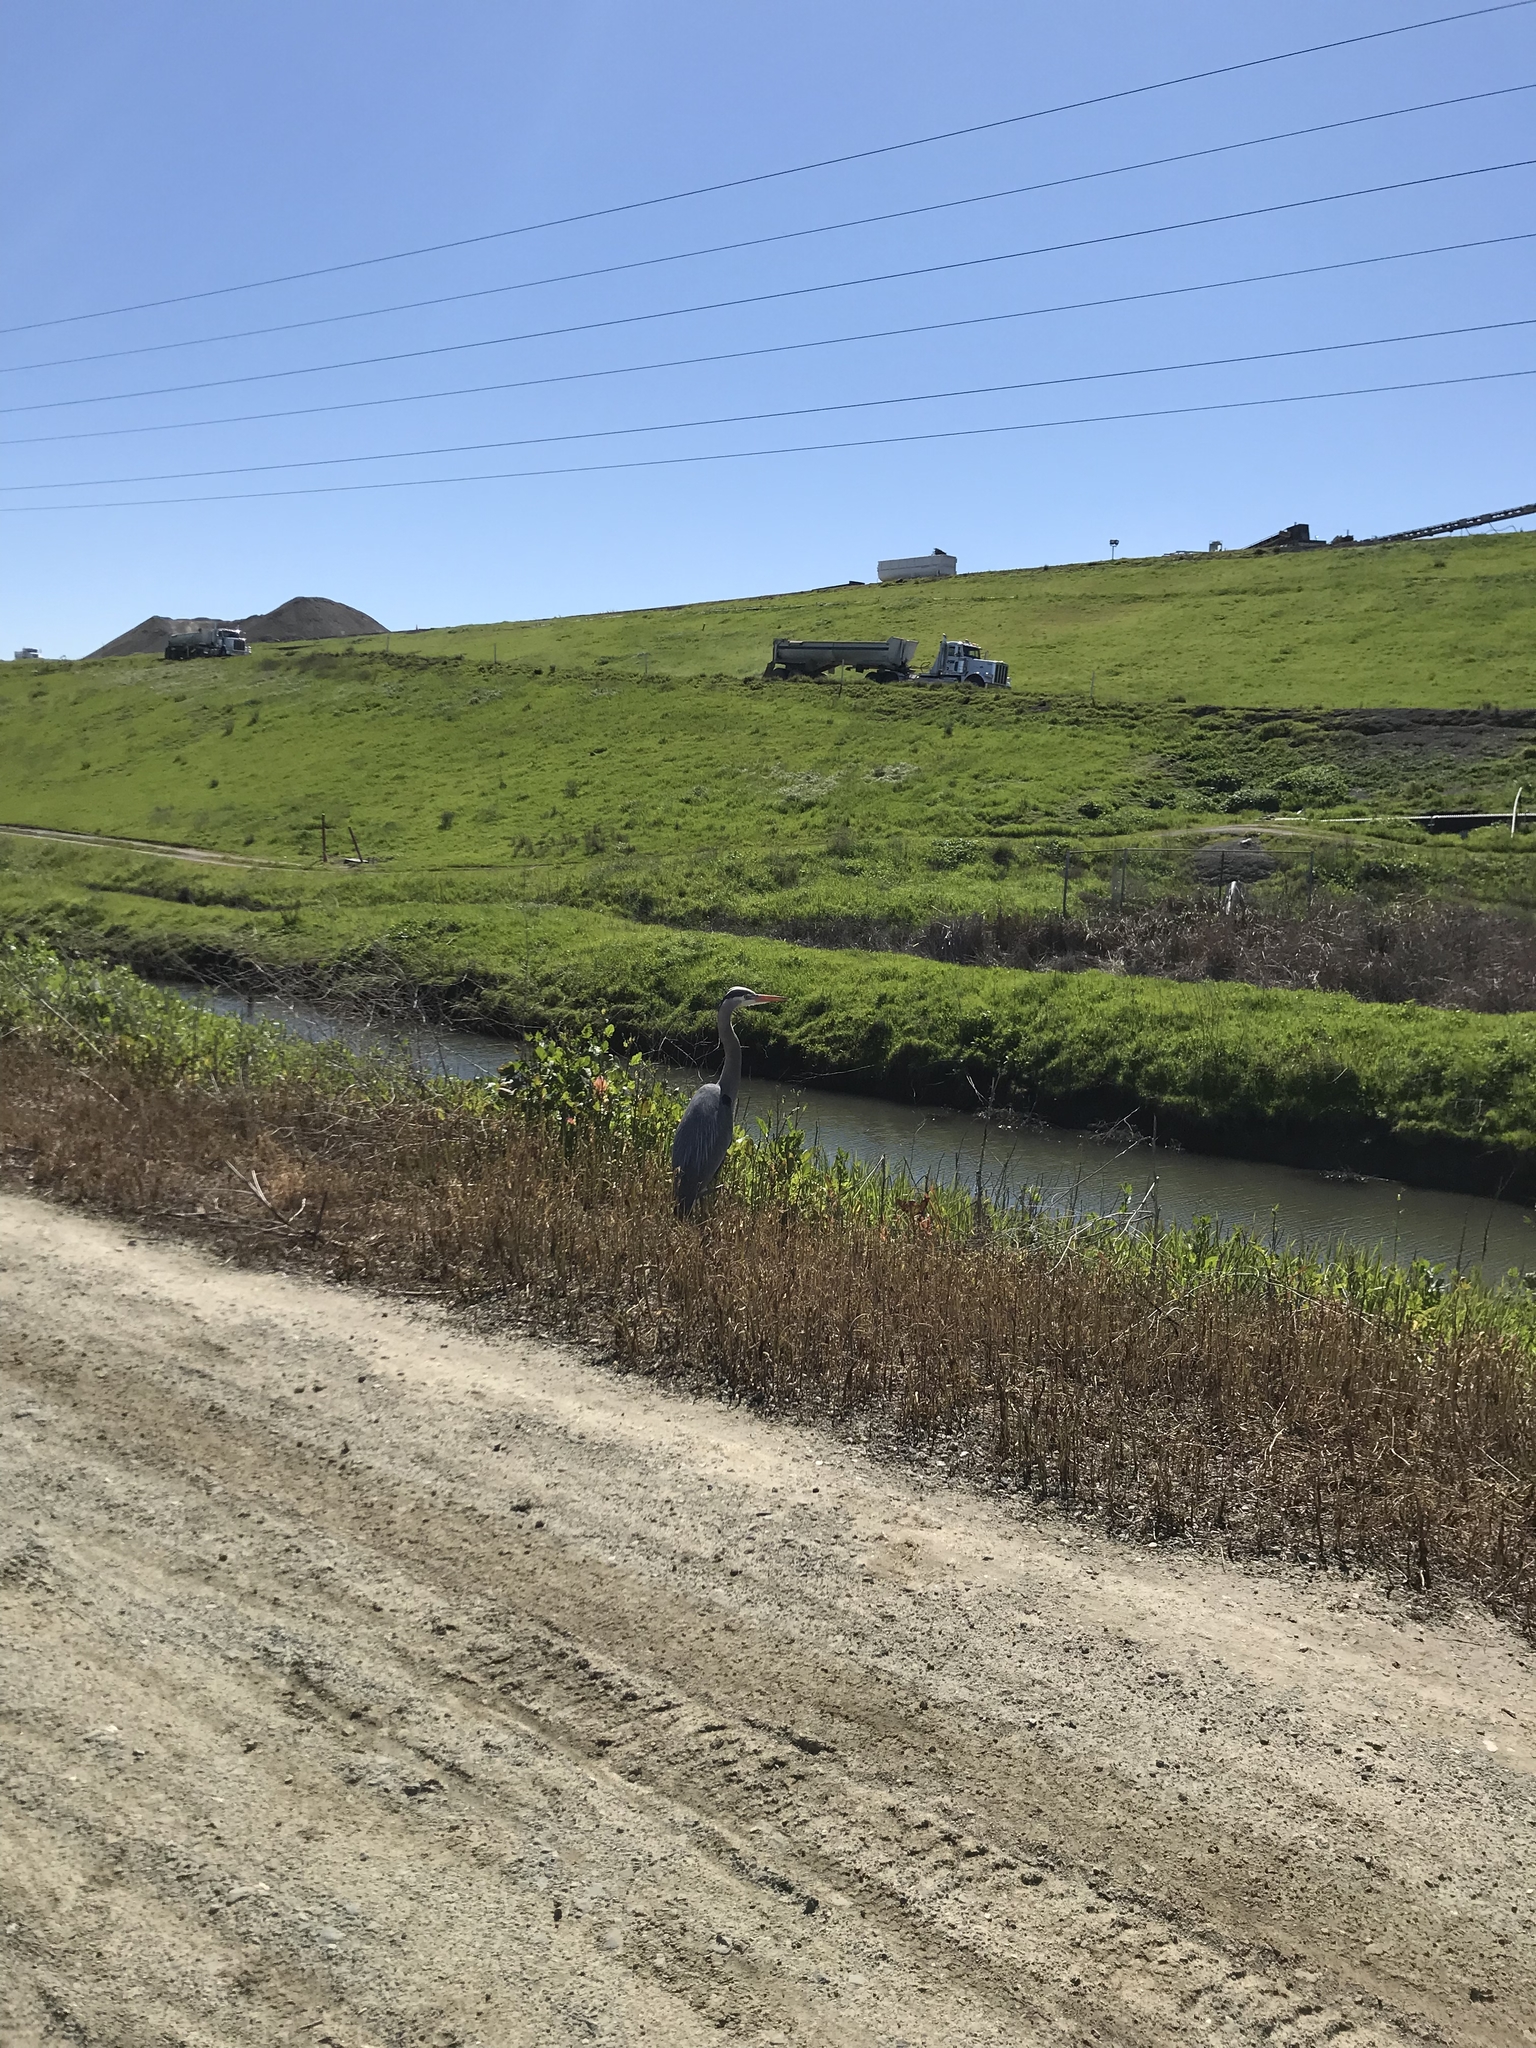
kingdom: Animalia
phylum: Chordata
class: Aves
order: Pelecaniformes
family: Ardeidae
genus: Ardea
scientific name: Ardea herodias
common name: Great blue heron
